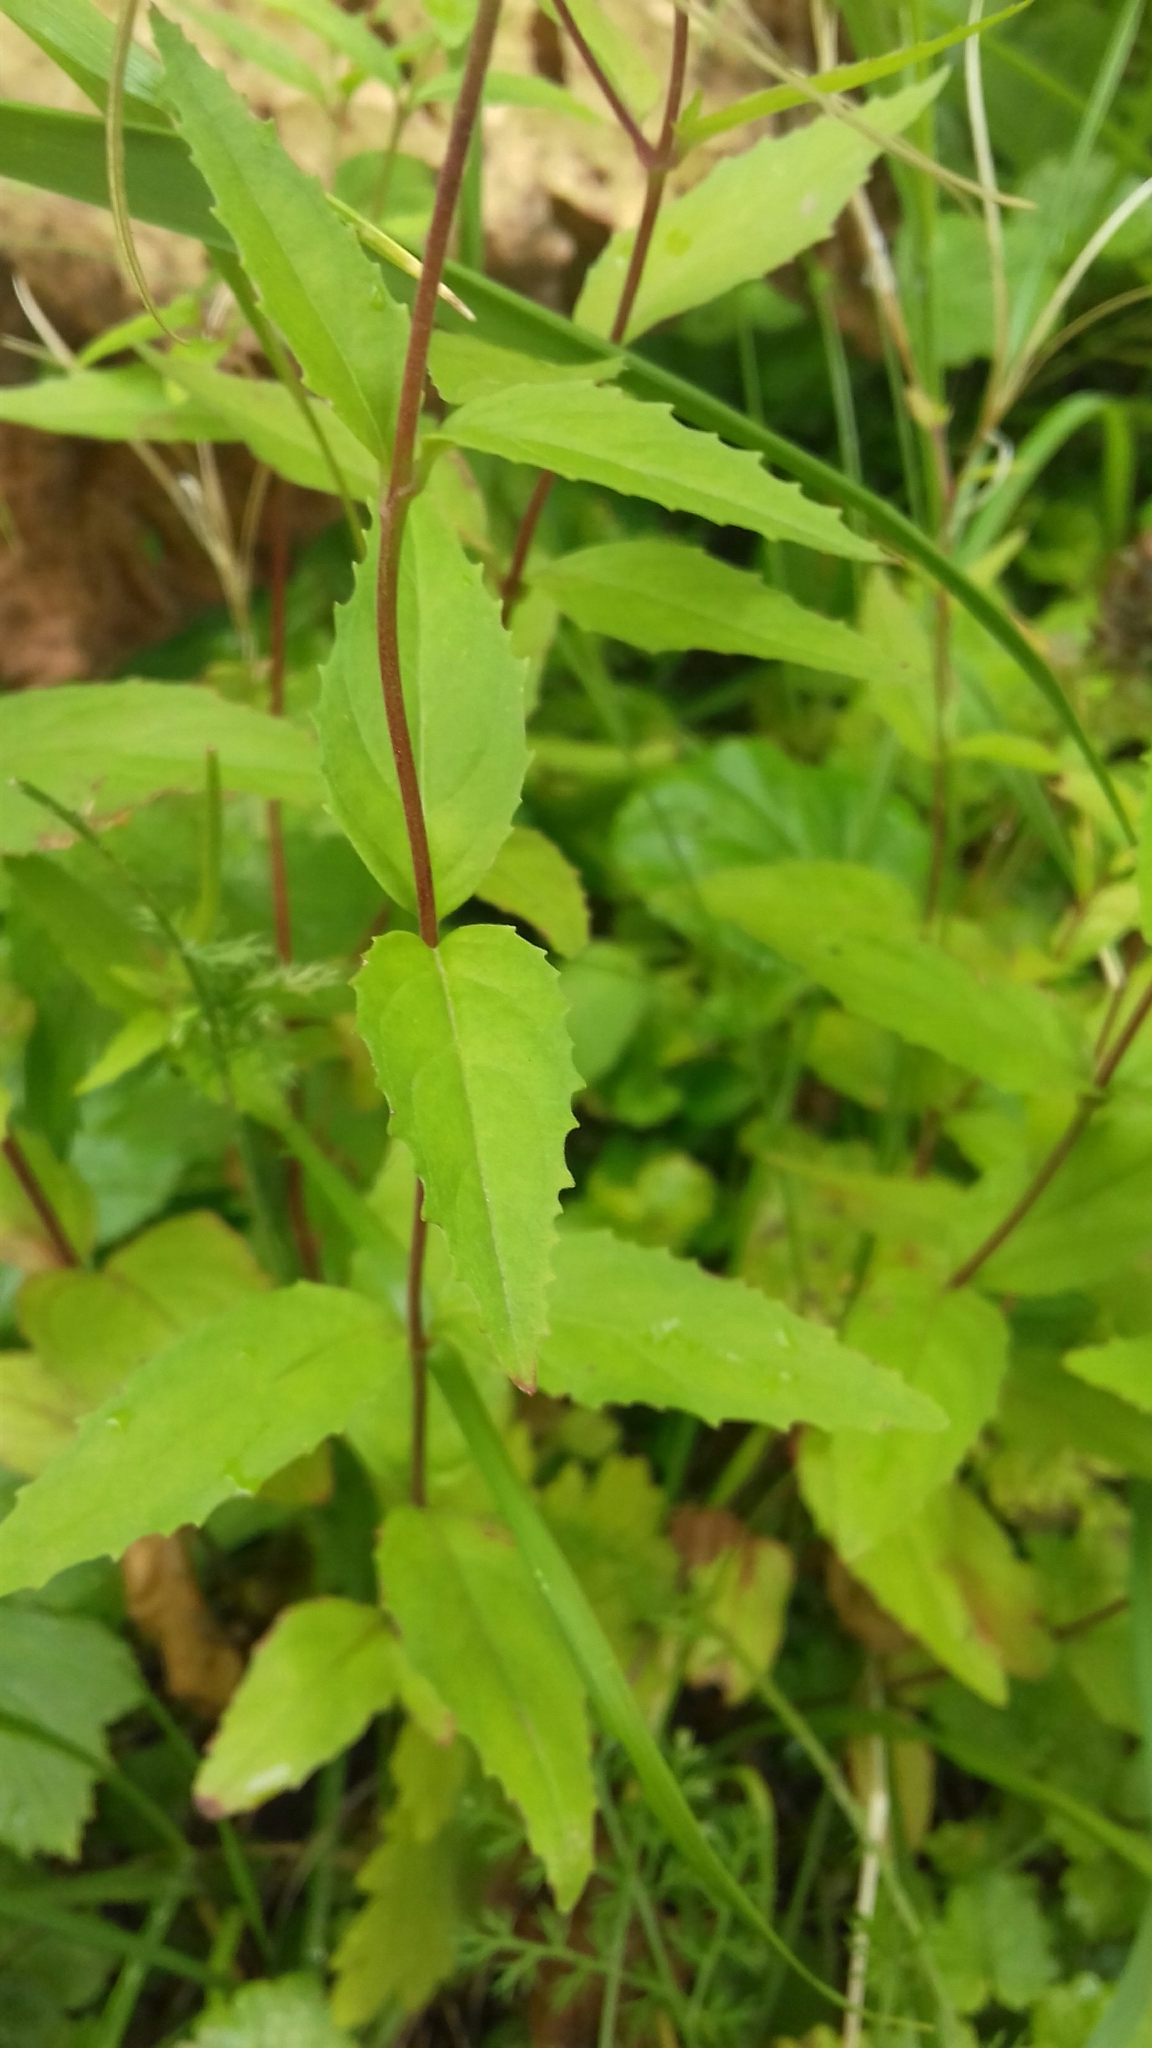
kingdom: Plantae
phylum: Tracheophyta
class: Magnoliopsida
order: Myrtales
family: Onagraceae
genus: Epilobium
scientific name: Epilobium montanum
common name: Broad-leaved willowherb
